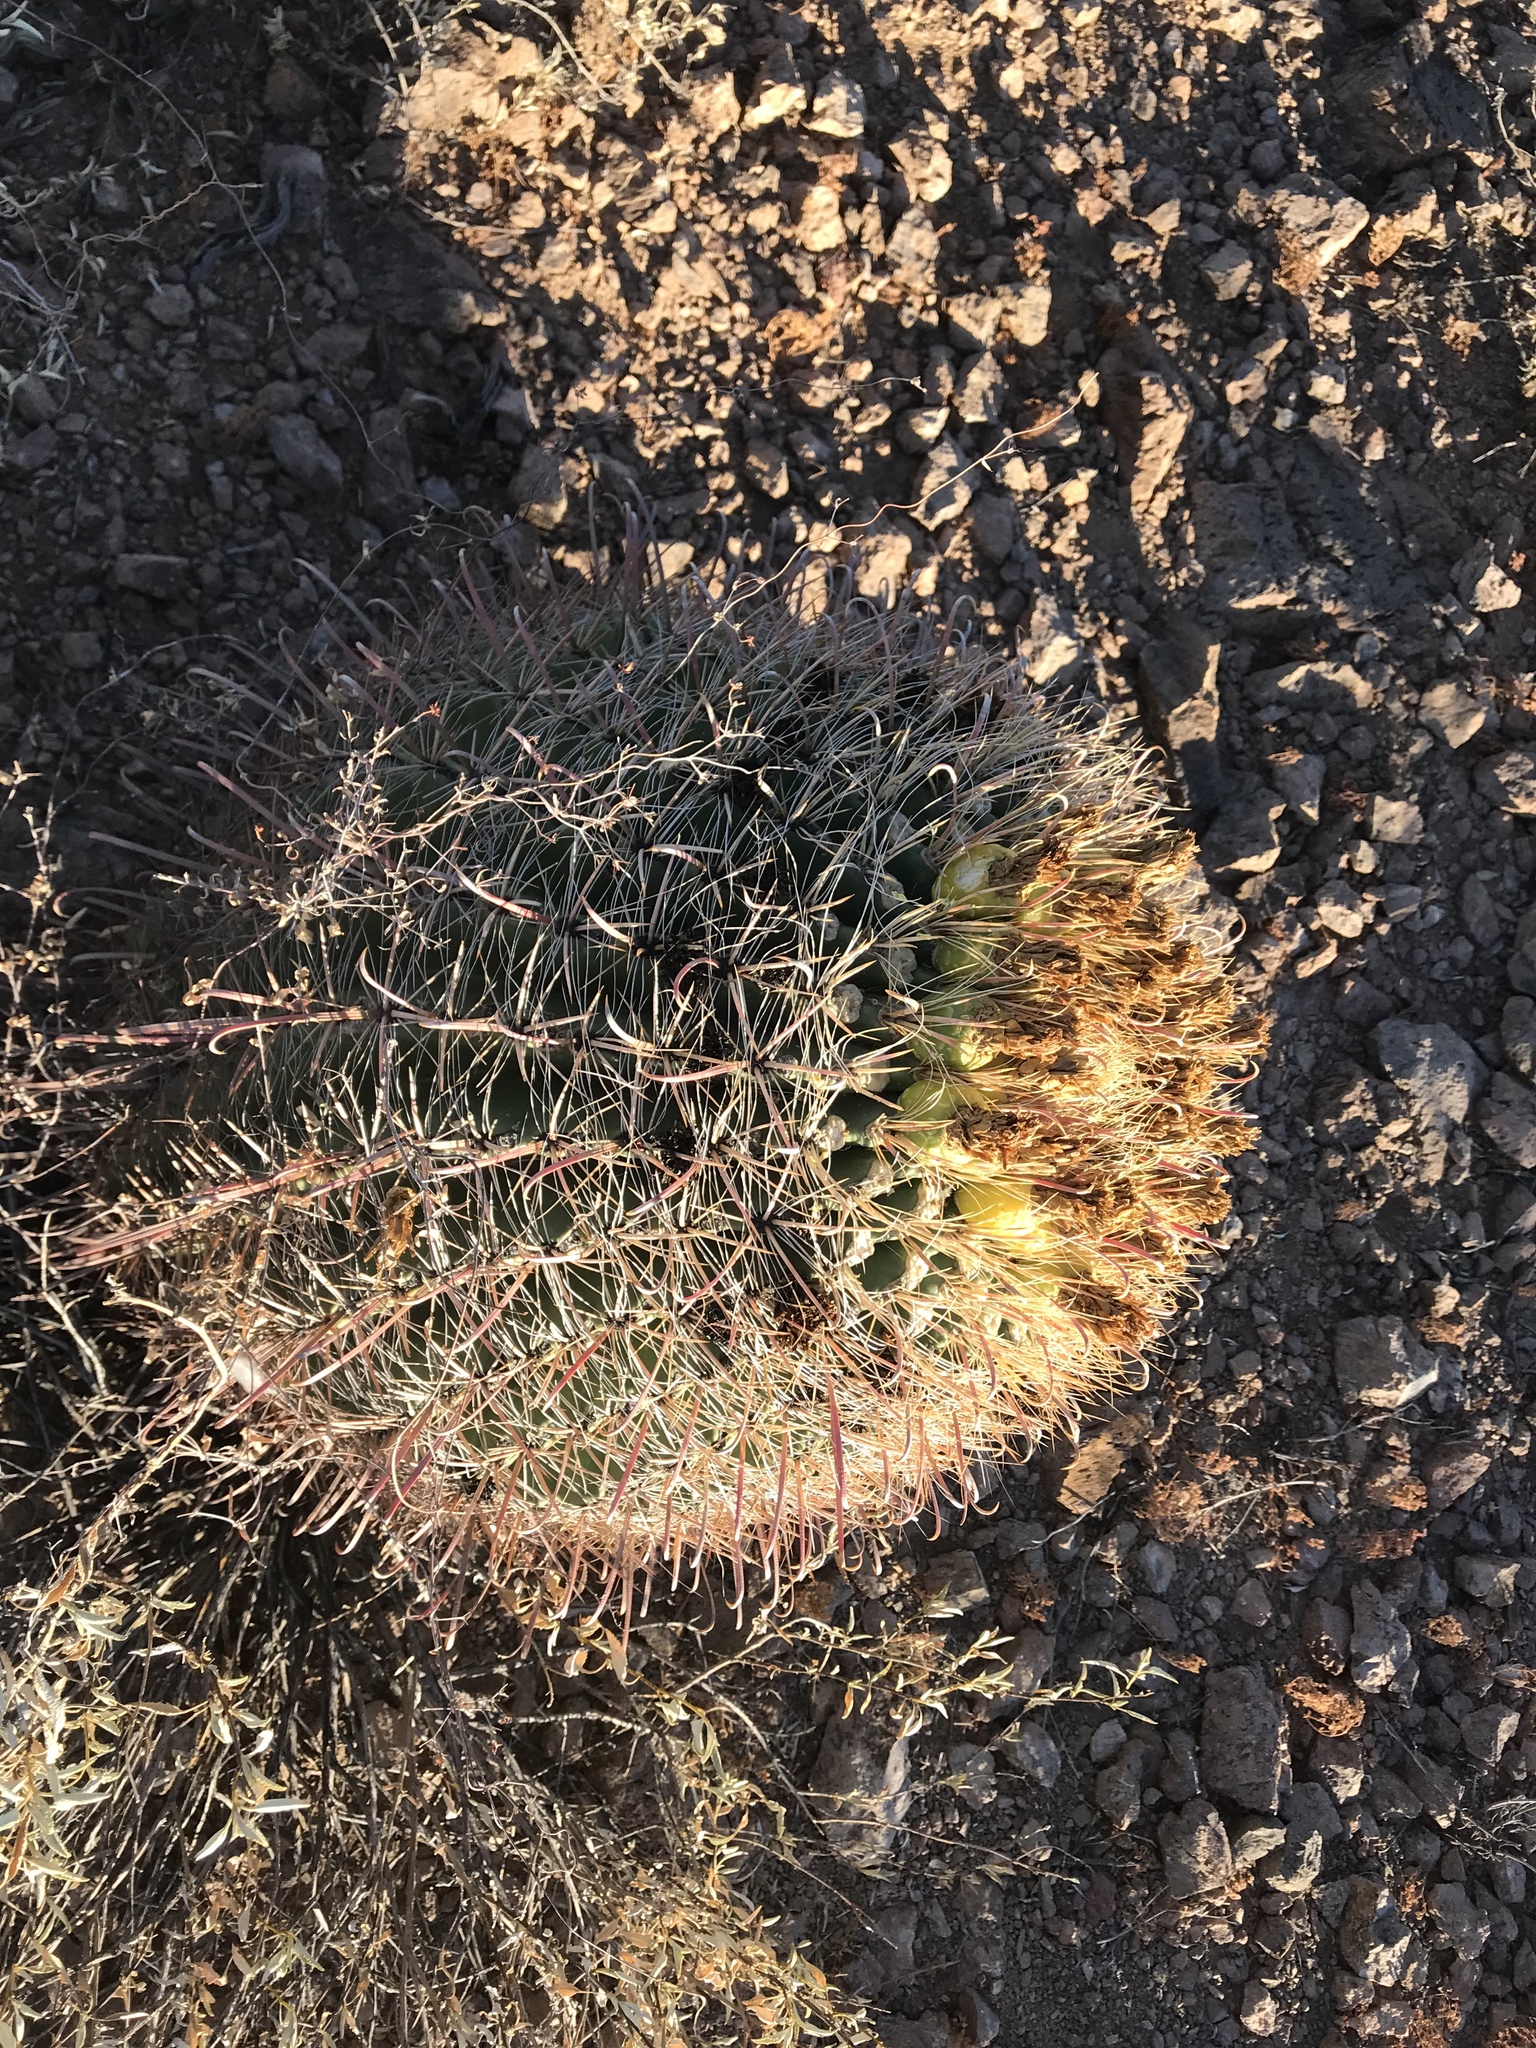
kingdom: Plantae
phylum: Tracheophyta
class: Magnoliopsida
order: Caryophyllales
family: Cactaceae
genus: Ferocactus
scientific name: Ferocactus wislizeni
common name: Candy barrel cactus
